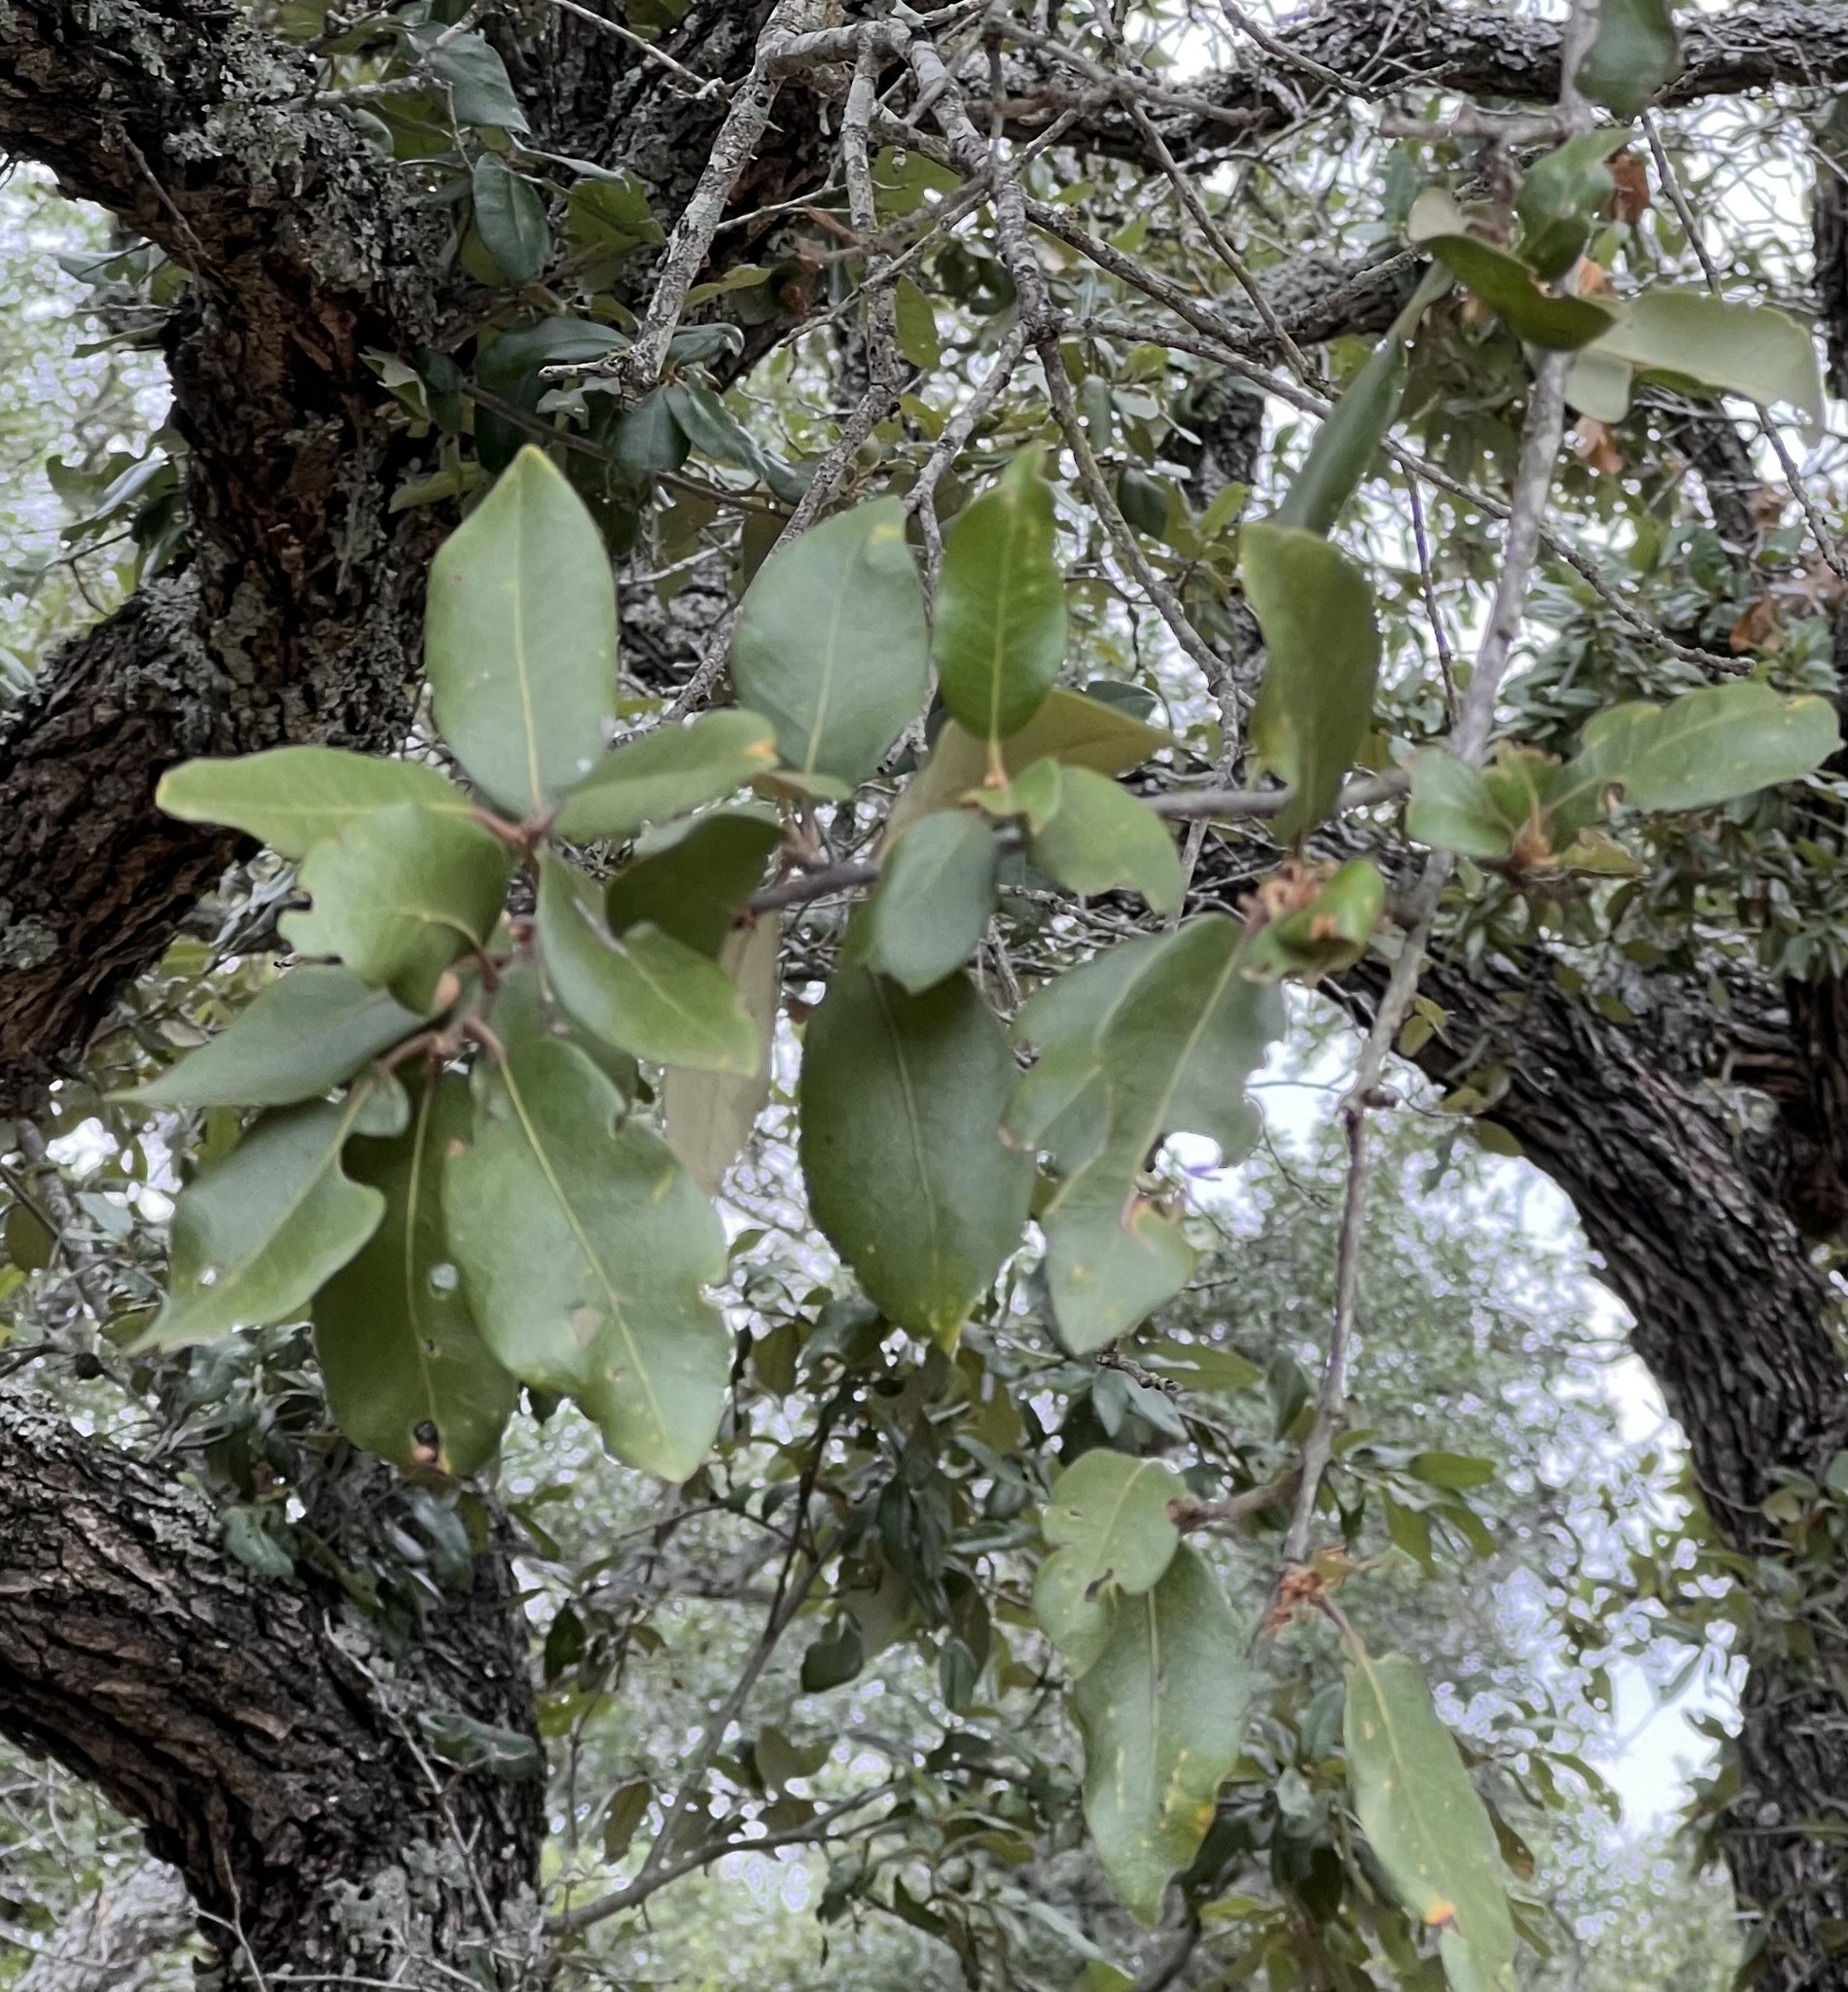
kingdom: Plantae
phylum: Tracheophyta
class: Magnoliopsida
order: Fagales
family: Fagaceae
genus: Quercus
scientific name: Quercus fusiformis
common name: Texas live oak
